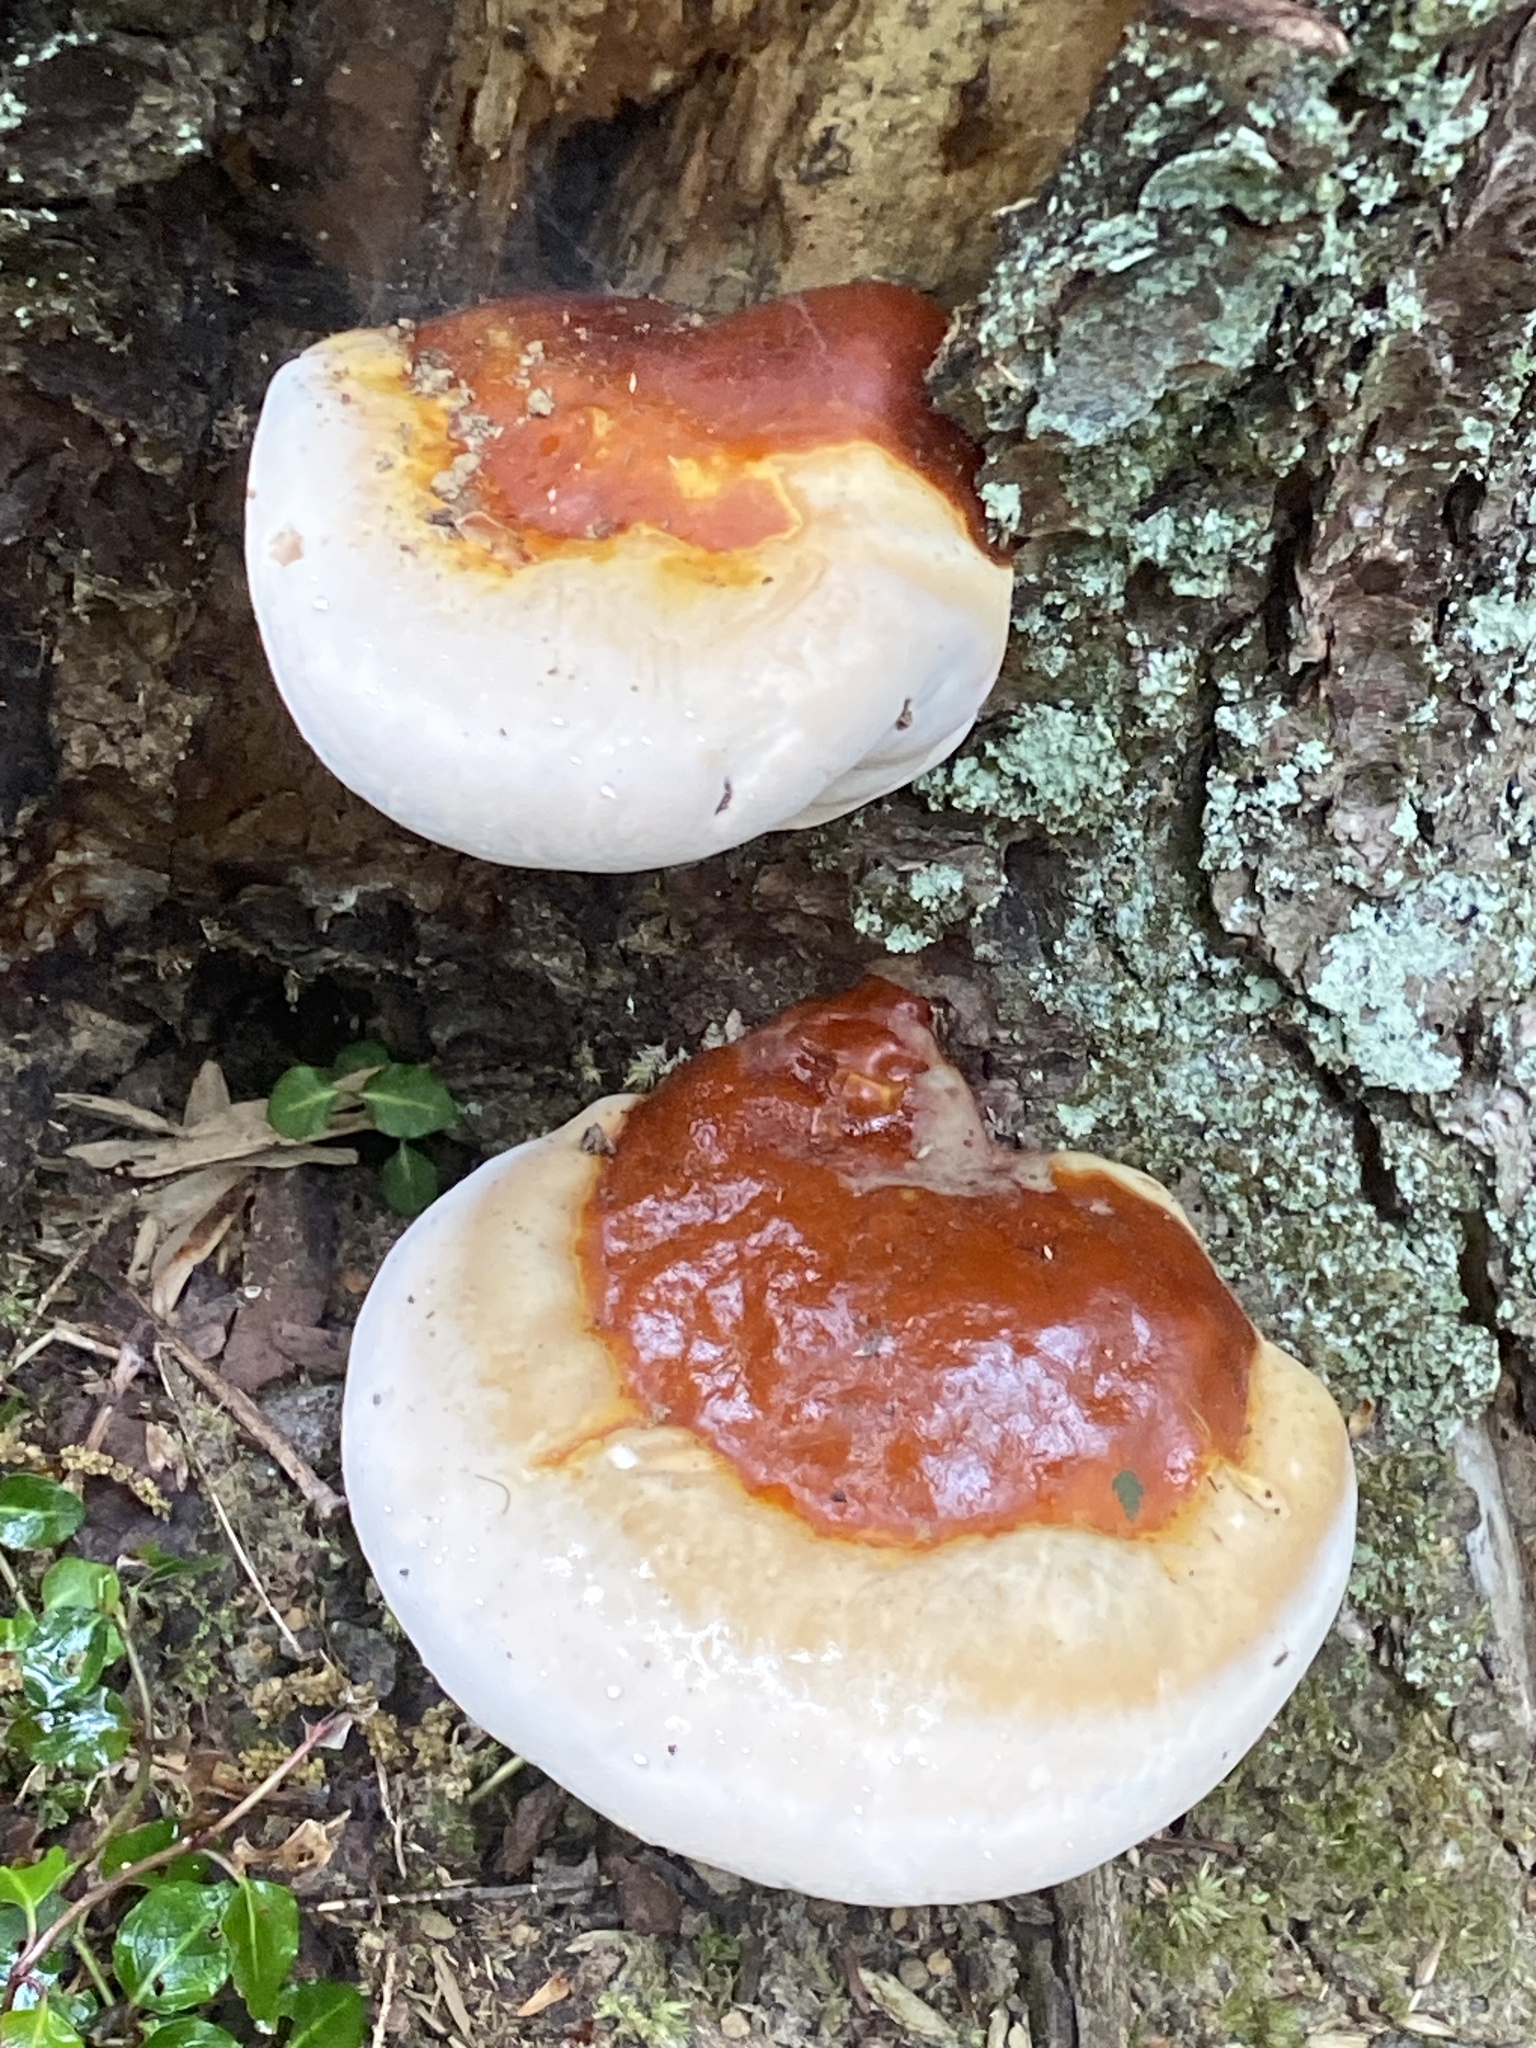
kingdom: Fungi
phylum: Basidiomycota
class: Agaricomycetes
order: Polyporales
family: Polyporaceae
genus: Ganoderma
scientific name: Ganoderma tsugae
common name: Hemlock varnish shelf
